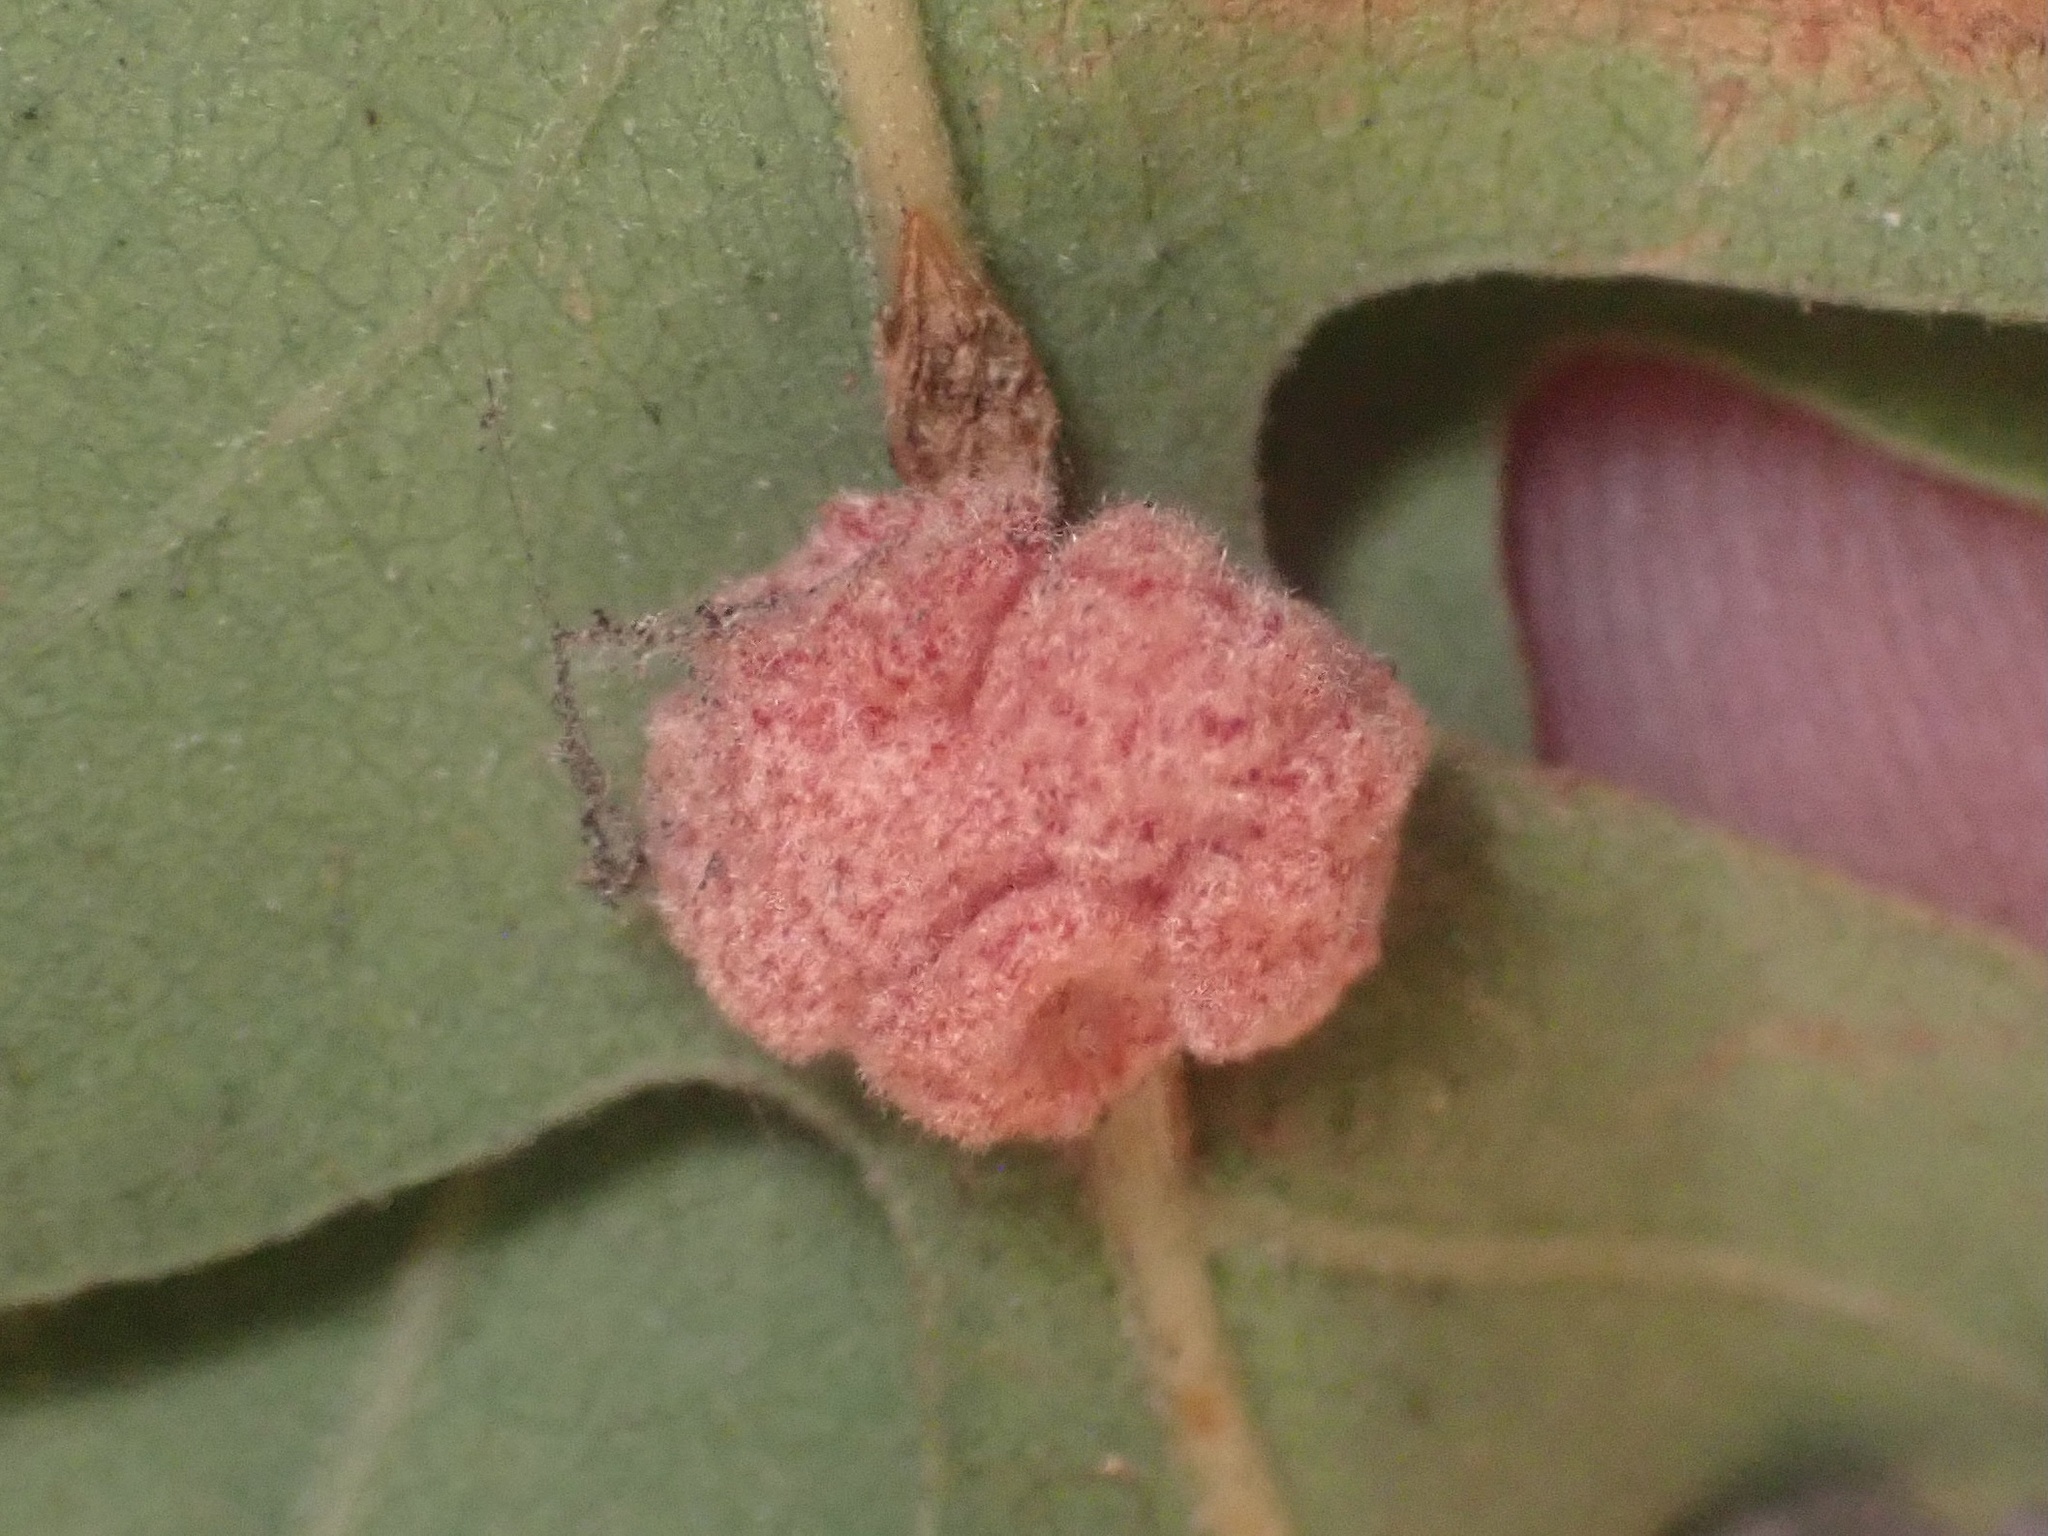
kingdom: Animalia
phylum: Arthropoda
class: Insecta
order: Hymenoptera
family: Cynipidae
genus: Andricus
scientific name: Andricus
